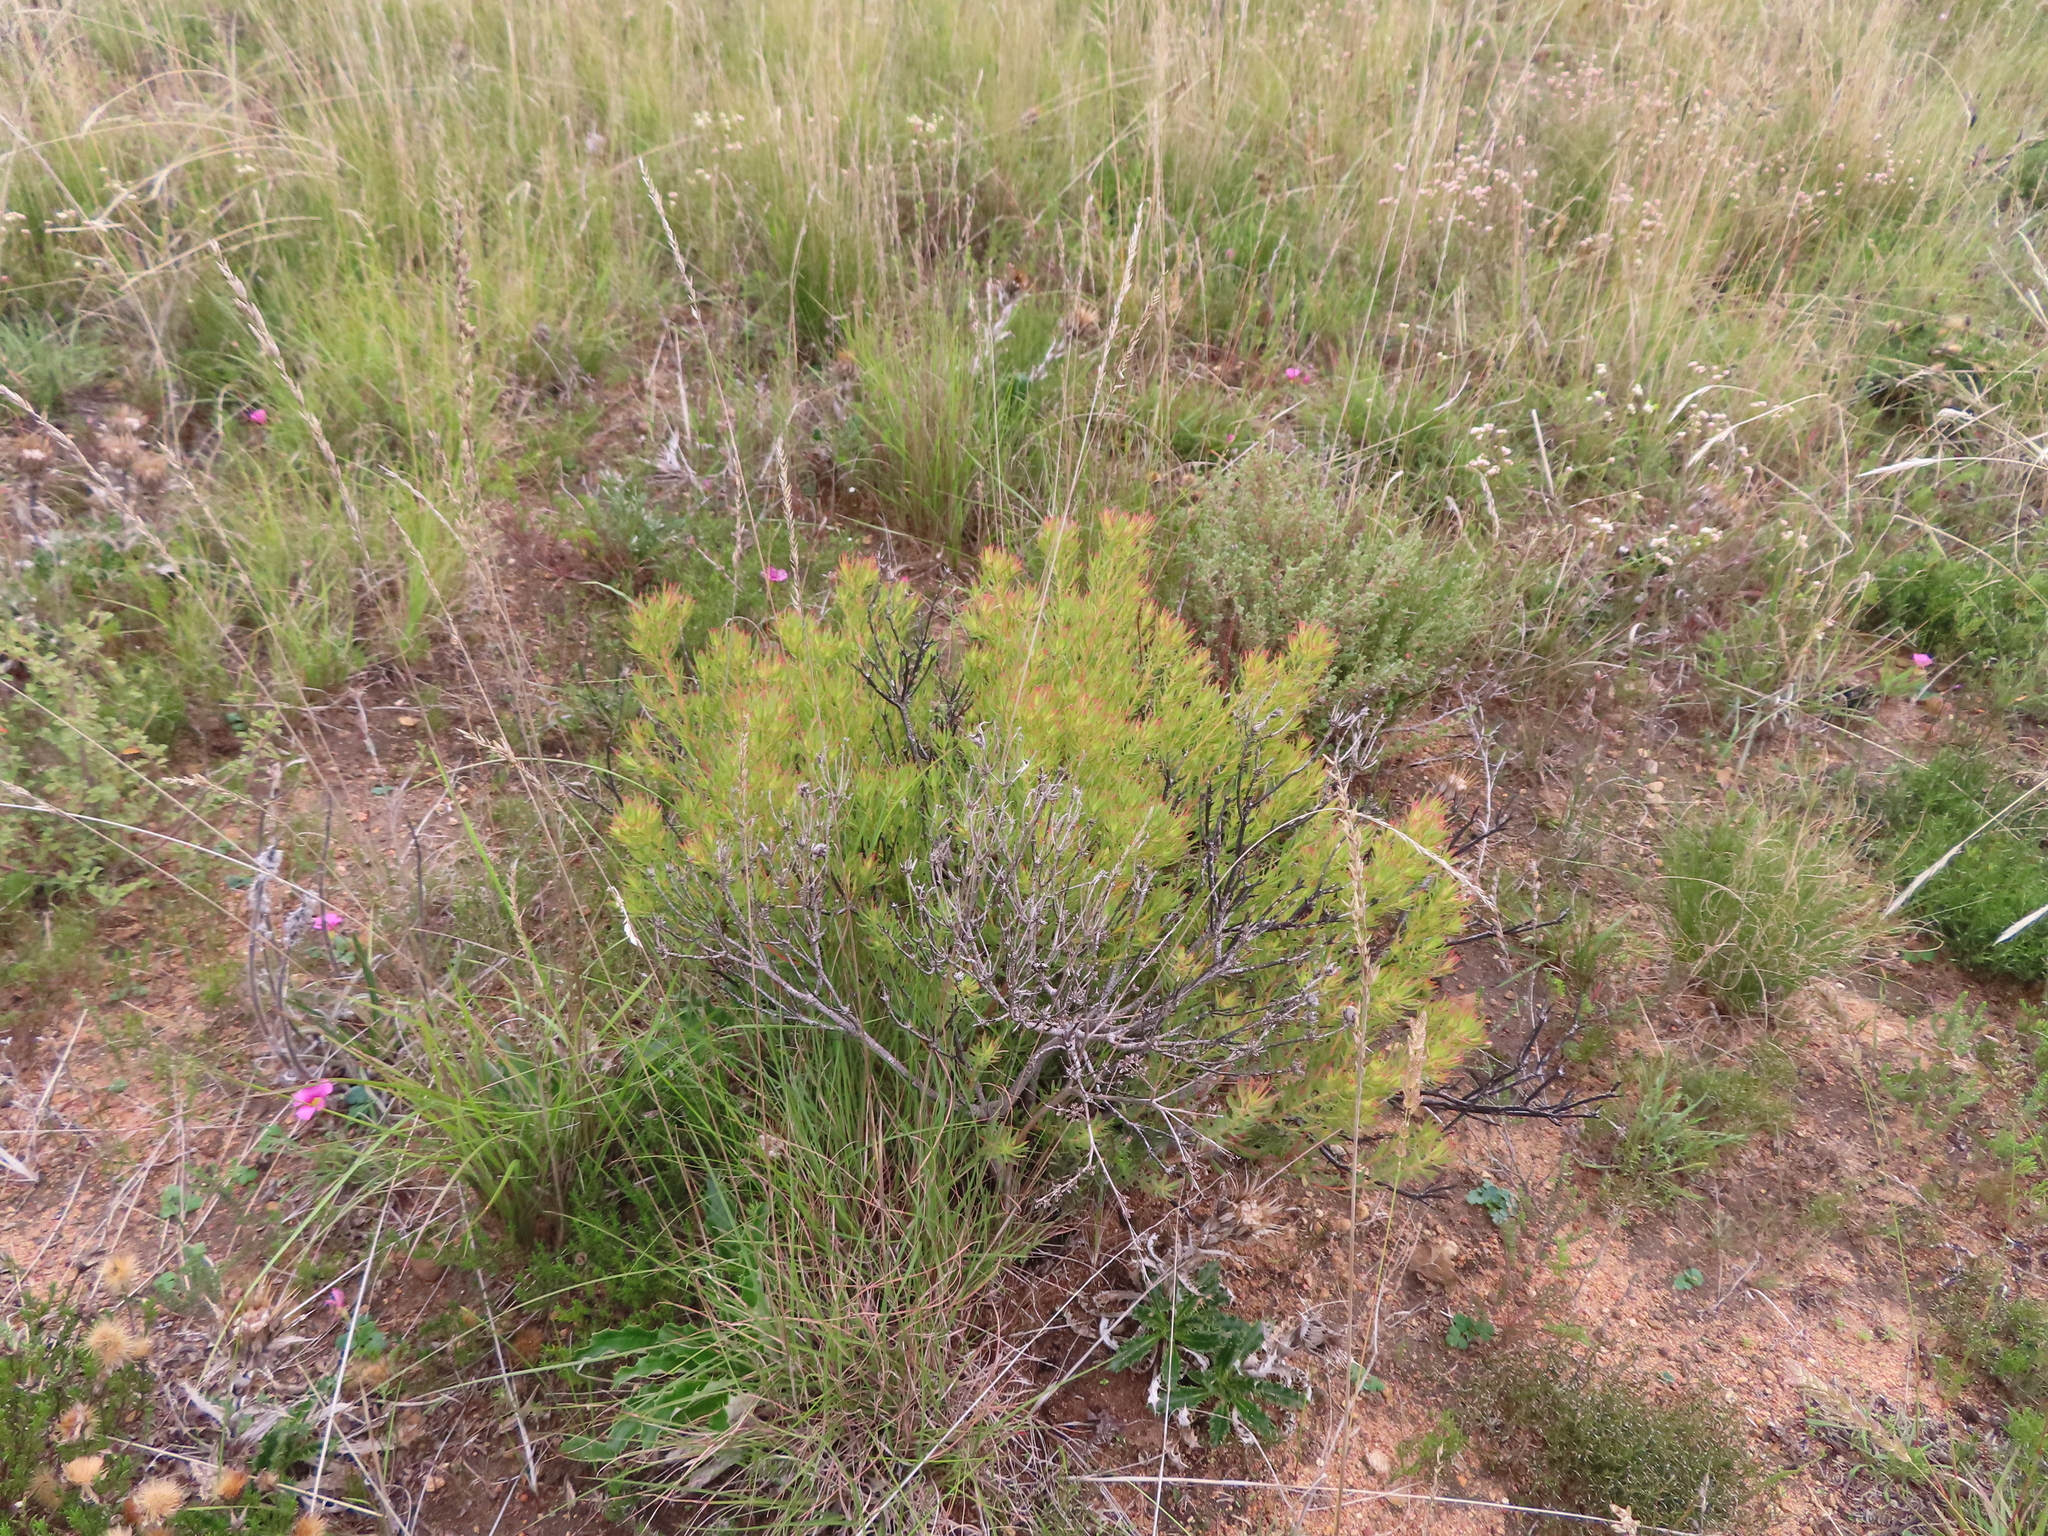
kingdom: Plantae
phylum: Tracheophyta
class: Magnoliopsida
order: Proteales
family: Proteaceae
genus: Leucadendron
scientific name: Leucadendron lanigerum
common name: Shale conebush
